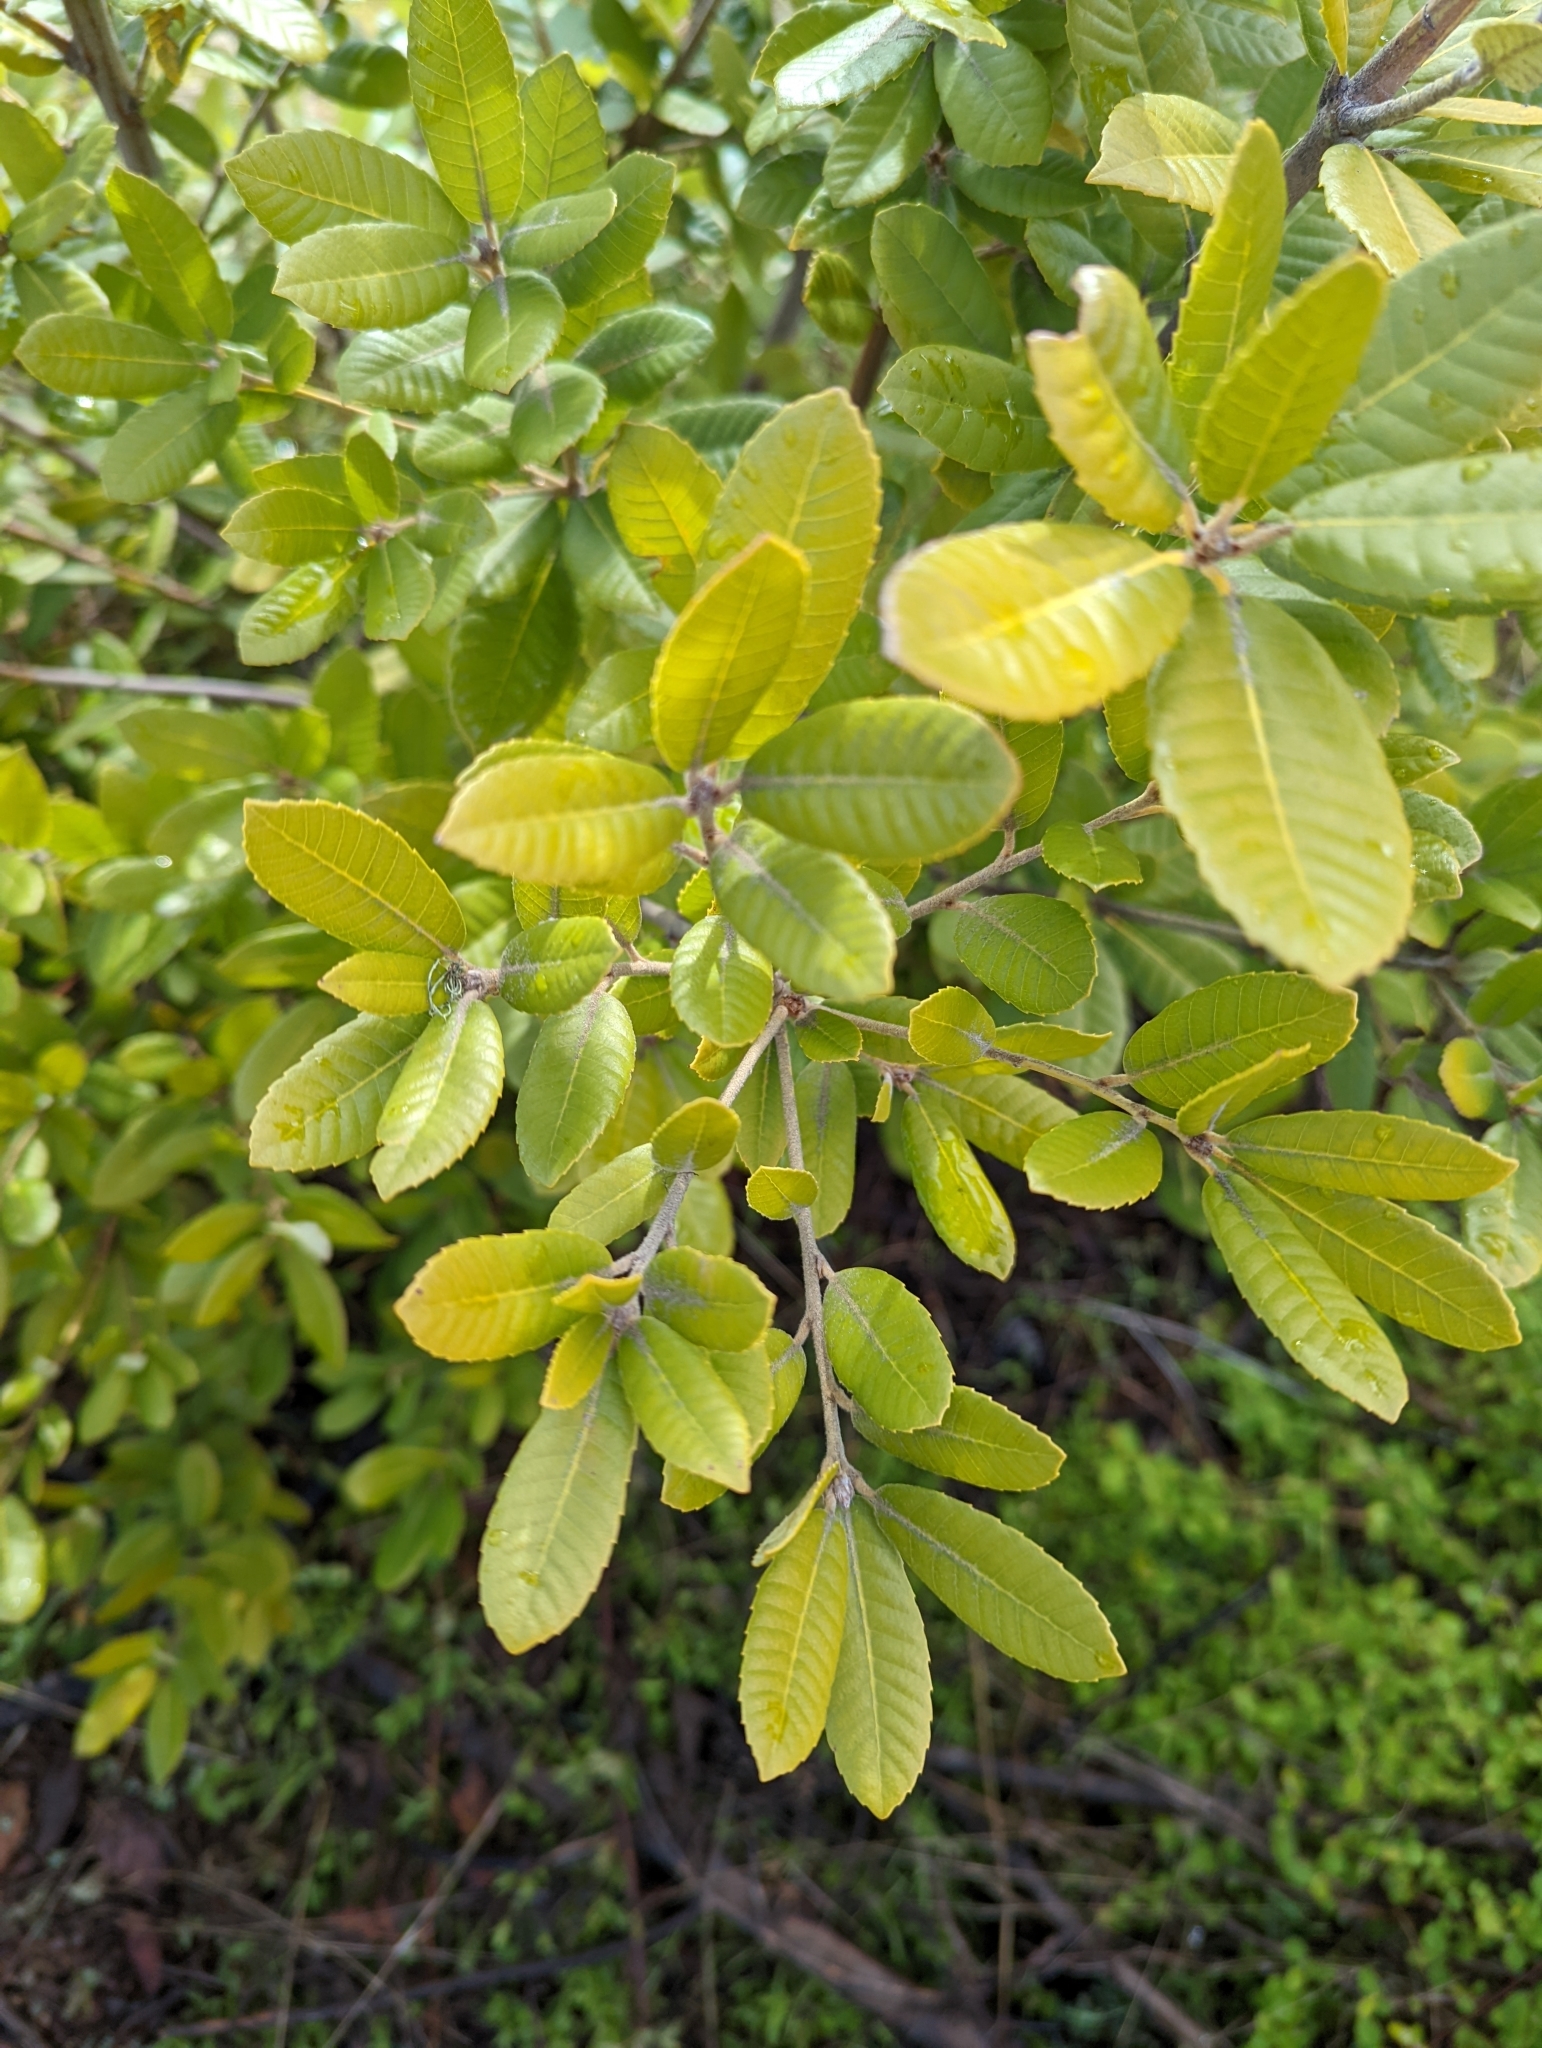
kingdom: Plantae
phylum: Tracheophyta
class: Magnoliopsida
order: Fagales
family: Fagaceae
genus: Notholithocarpus
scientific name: Notholithocarpus densiflorus
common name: Tan bark oak
